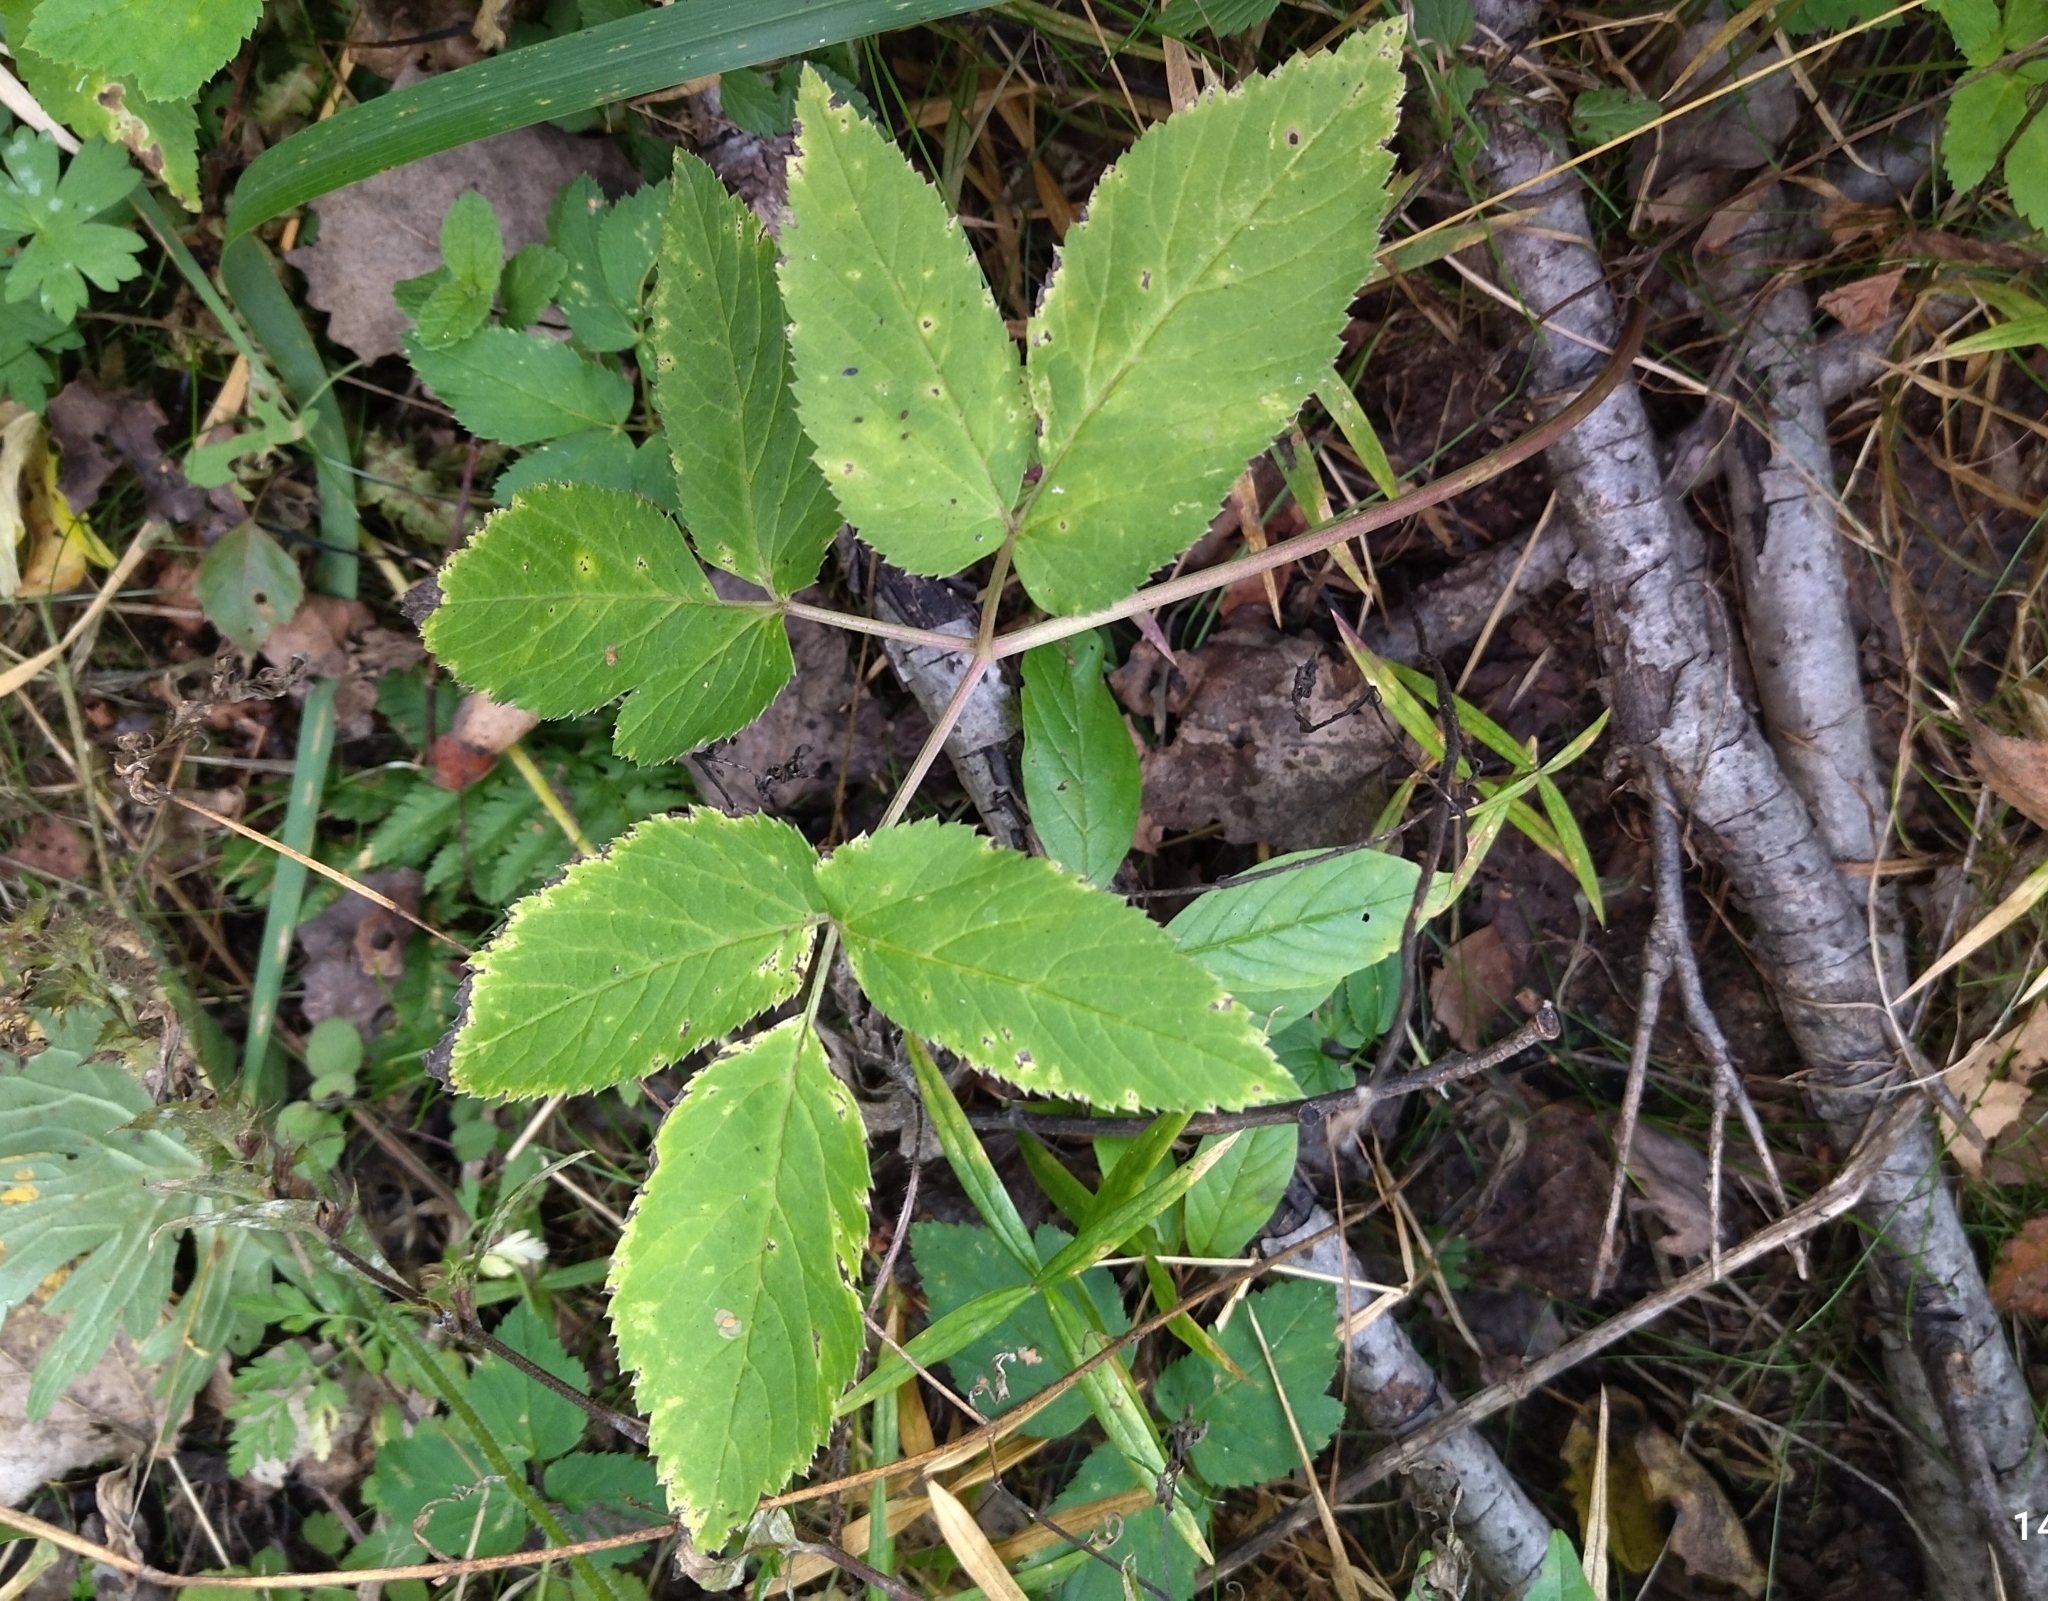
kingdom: Plantae
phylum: Tracheophyta
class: Magnoliopsida
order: Apiales
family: Apiaceae
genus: Aegopodium
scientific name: Aegopodium podagraria
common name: Ground-elder
